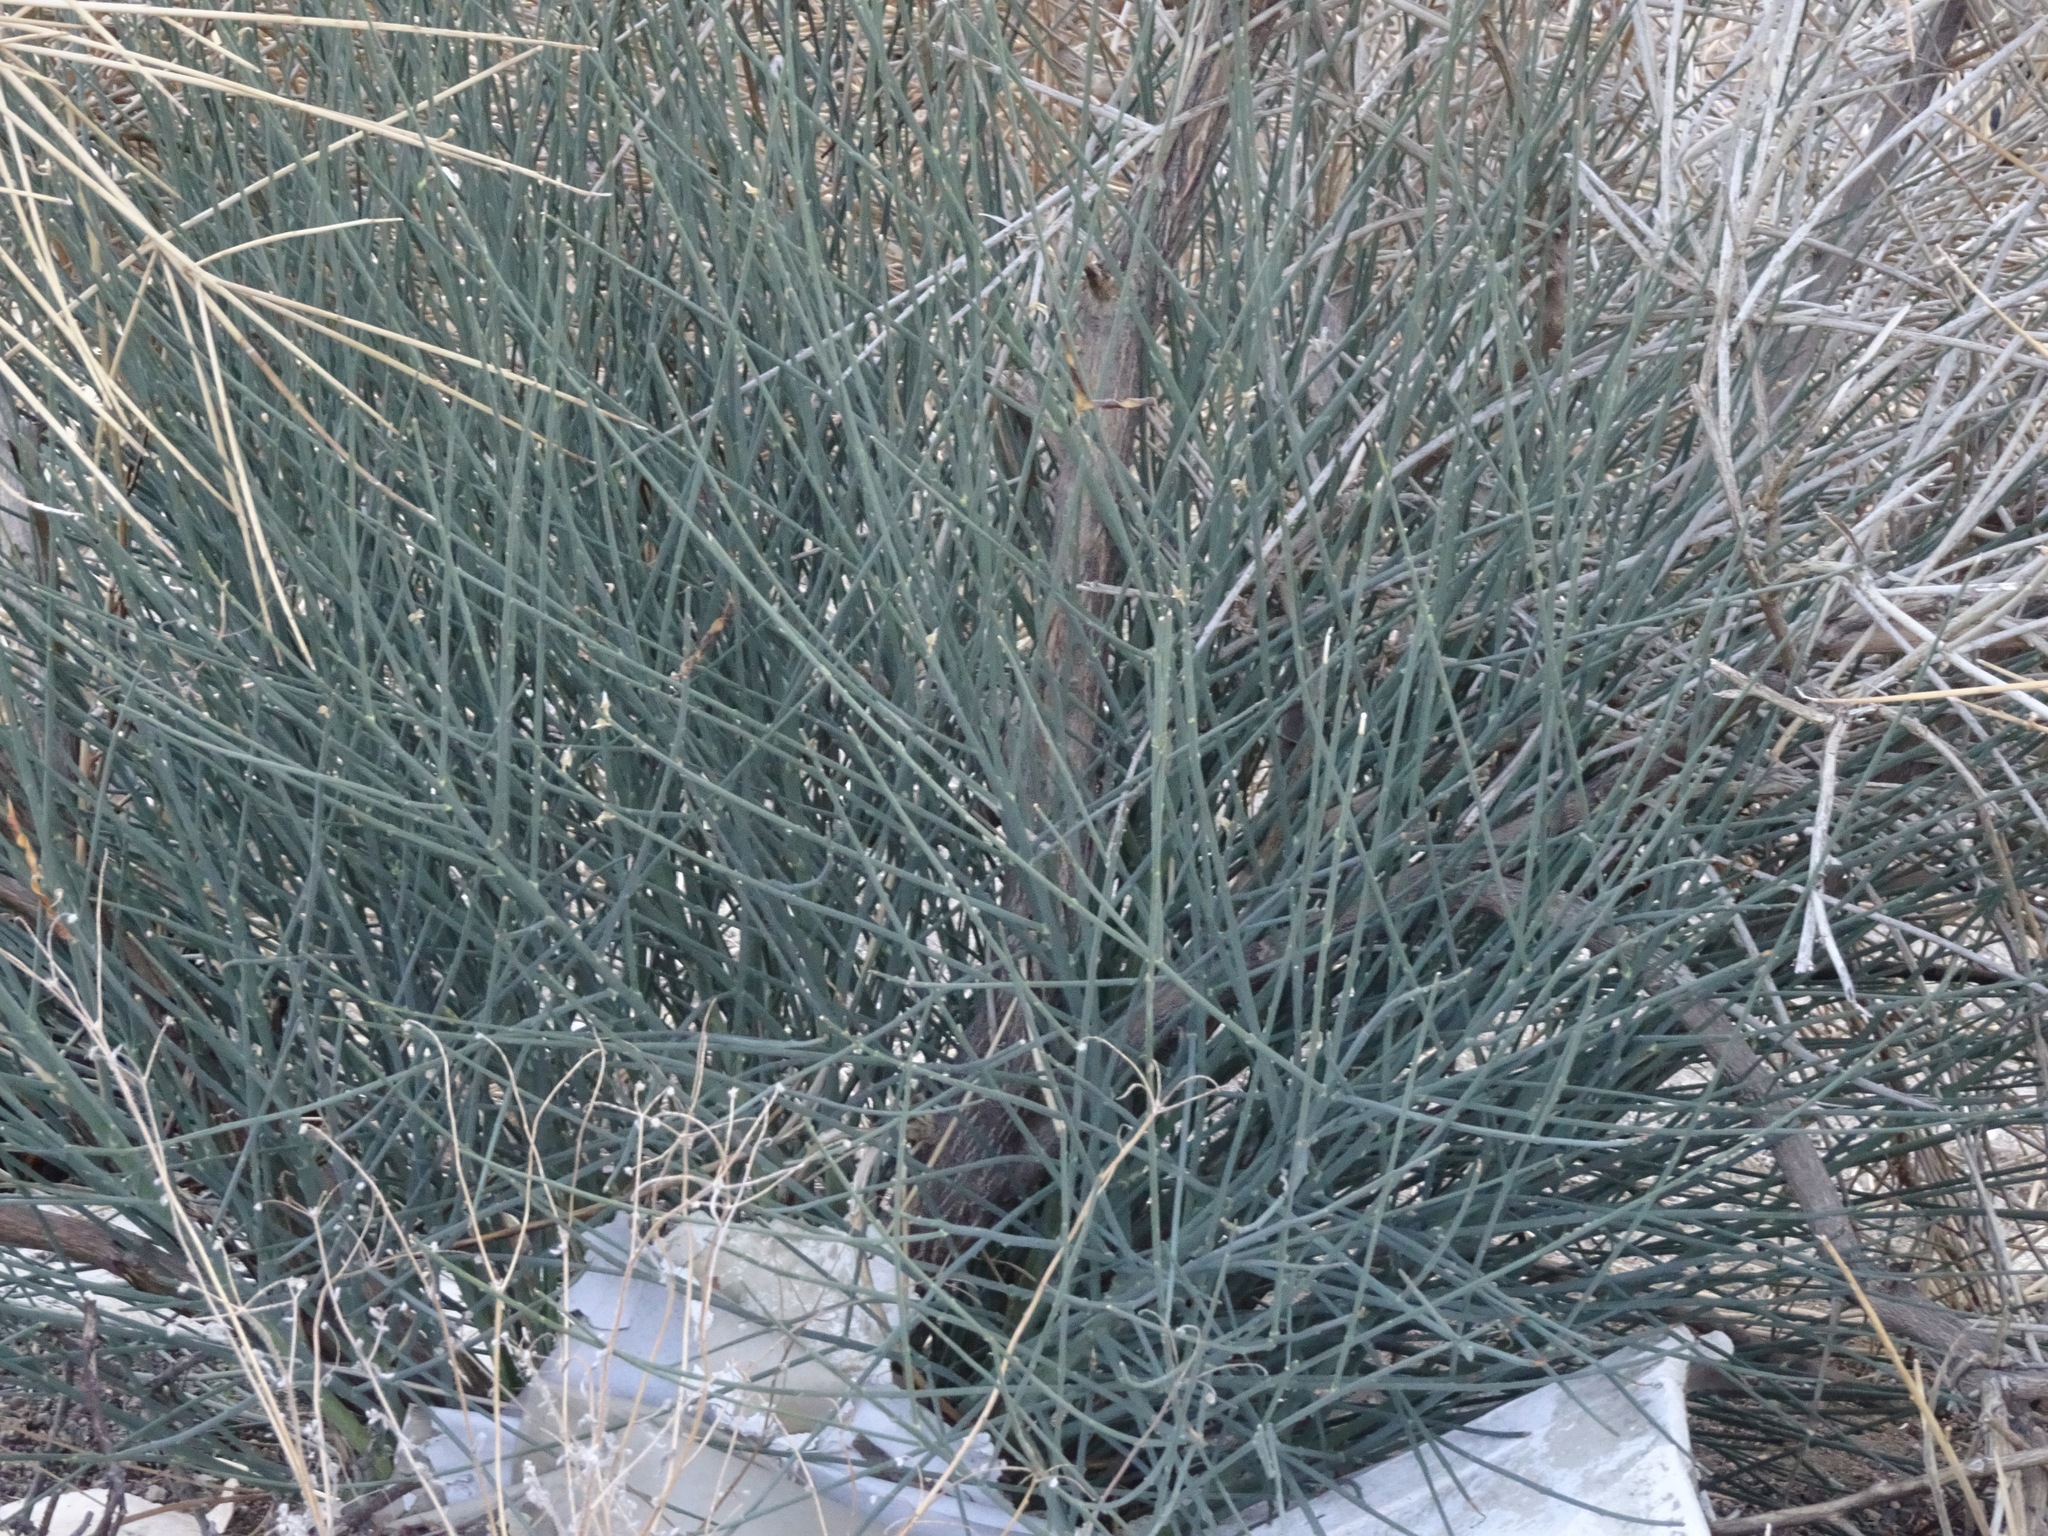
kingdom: Plantae
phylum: Tracheophyta
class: Magnoliopsida
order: Fabales
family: Fabaceae
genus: Spartium
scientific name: Spartium junceum
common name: Spanish broom
